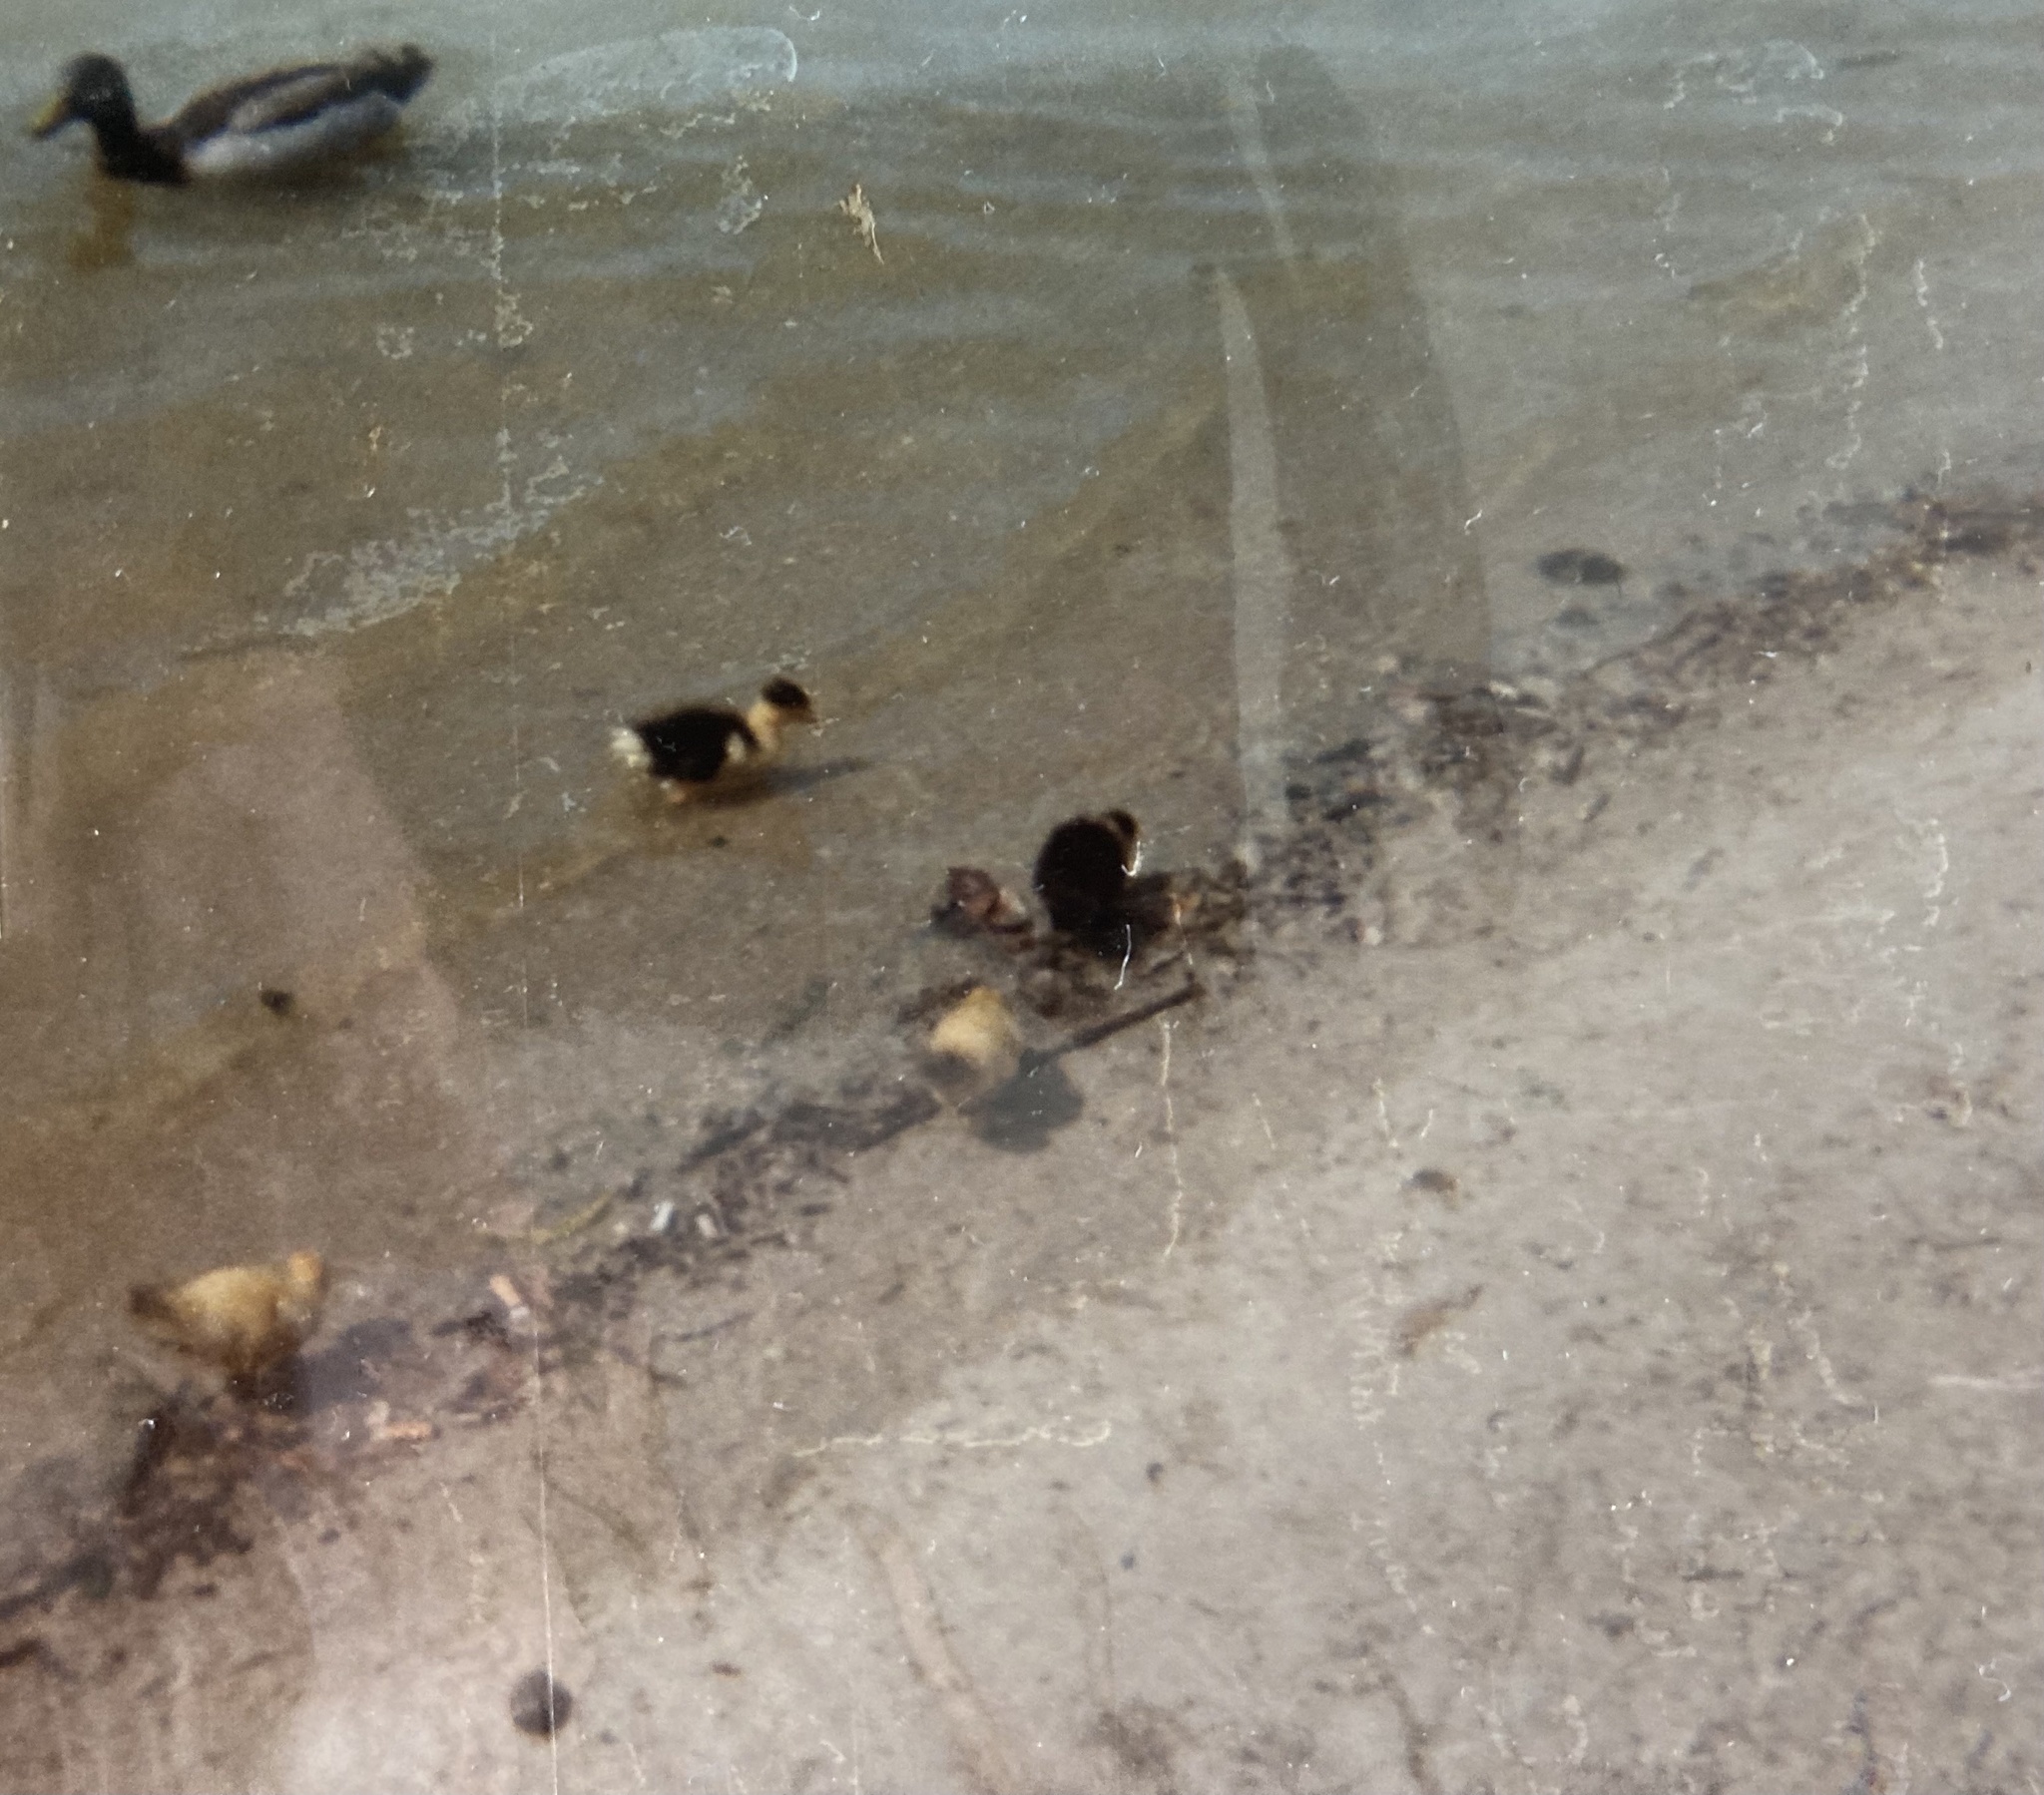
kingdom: Animalia
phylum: Chordata
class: Aves
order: Anseriformes
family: Anatidae
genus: Anas
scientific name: Anas platyrhynchos
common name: Mallard
